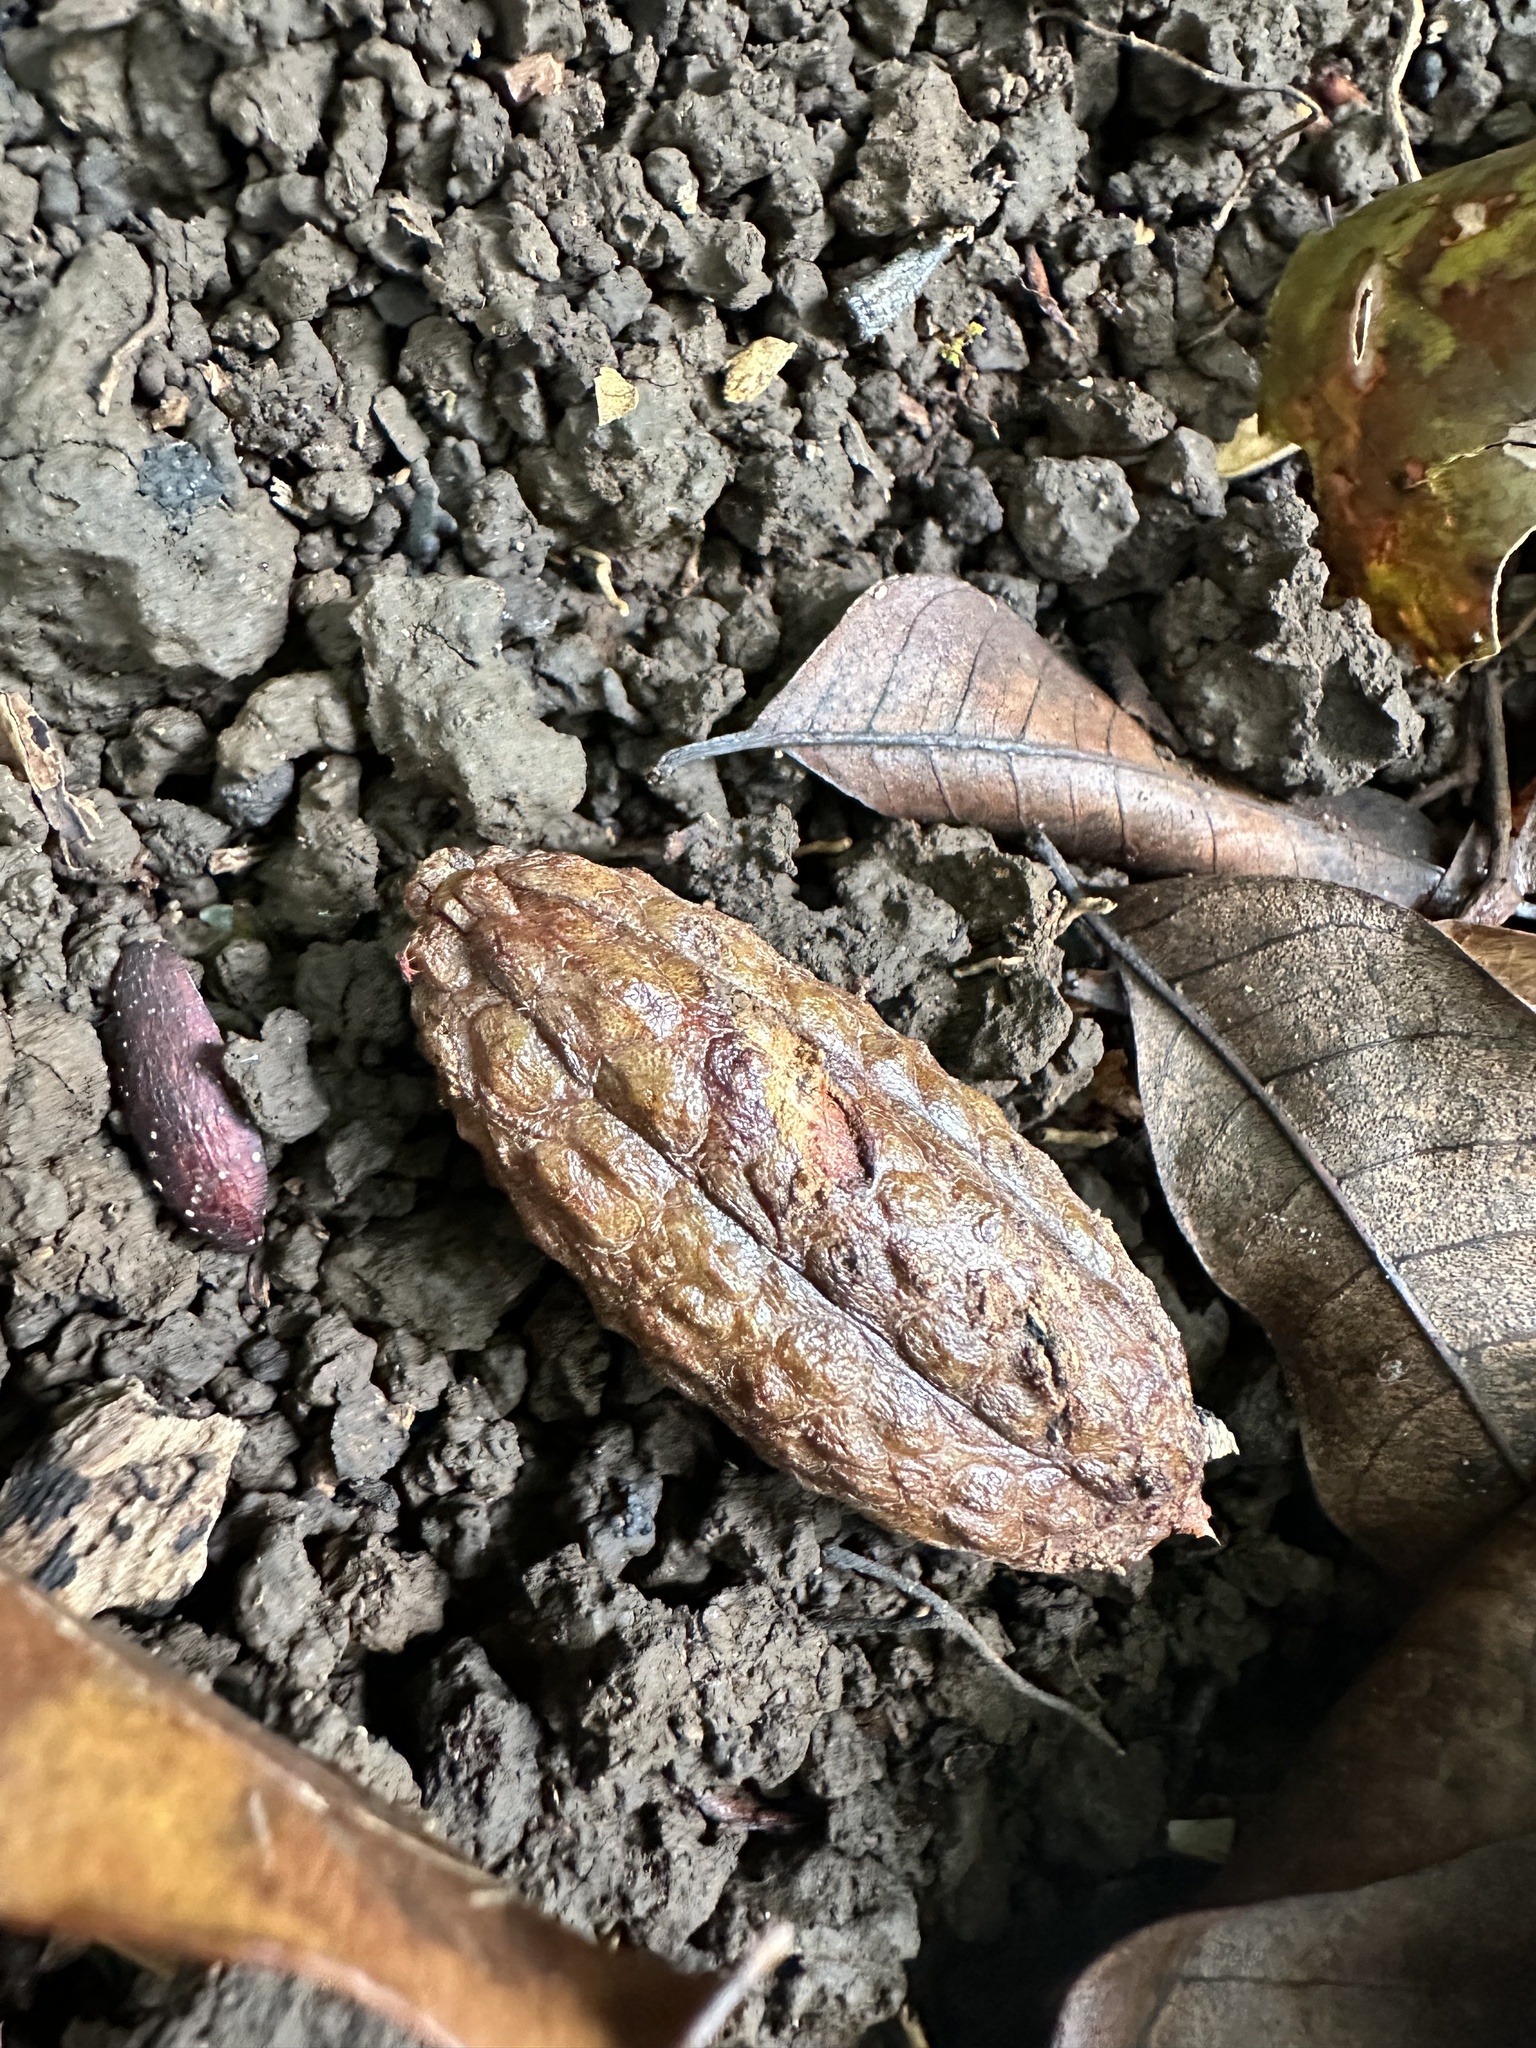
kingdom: Plantae
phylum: Tracheophyta
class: Magnoliopsida
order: Sapindales
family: Rutaceae
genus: Flindersia
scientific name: Flindersia brayleyana
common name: Queensland maple
